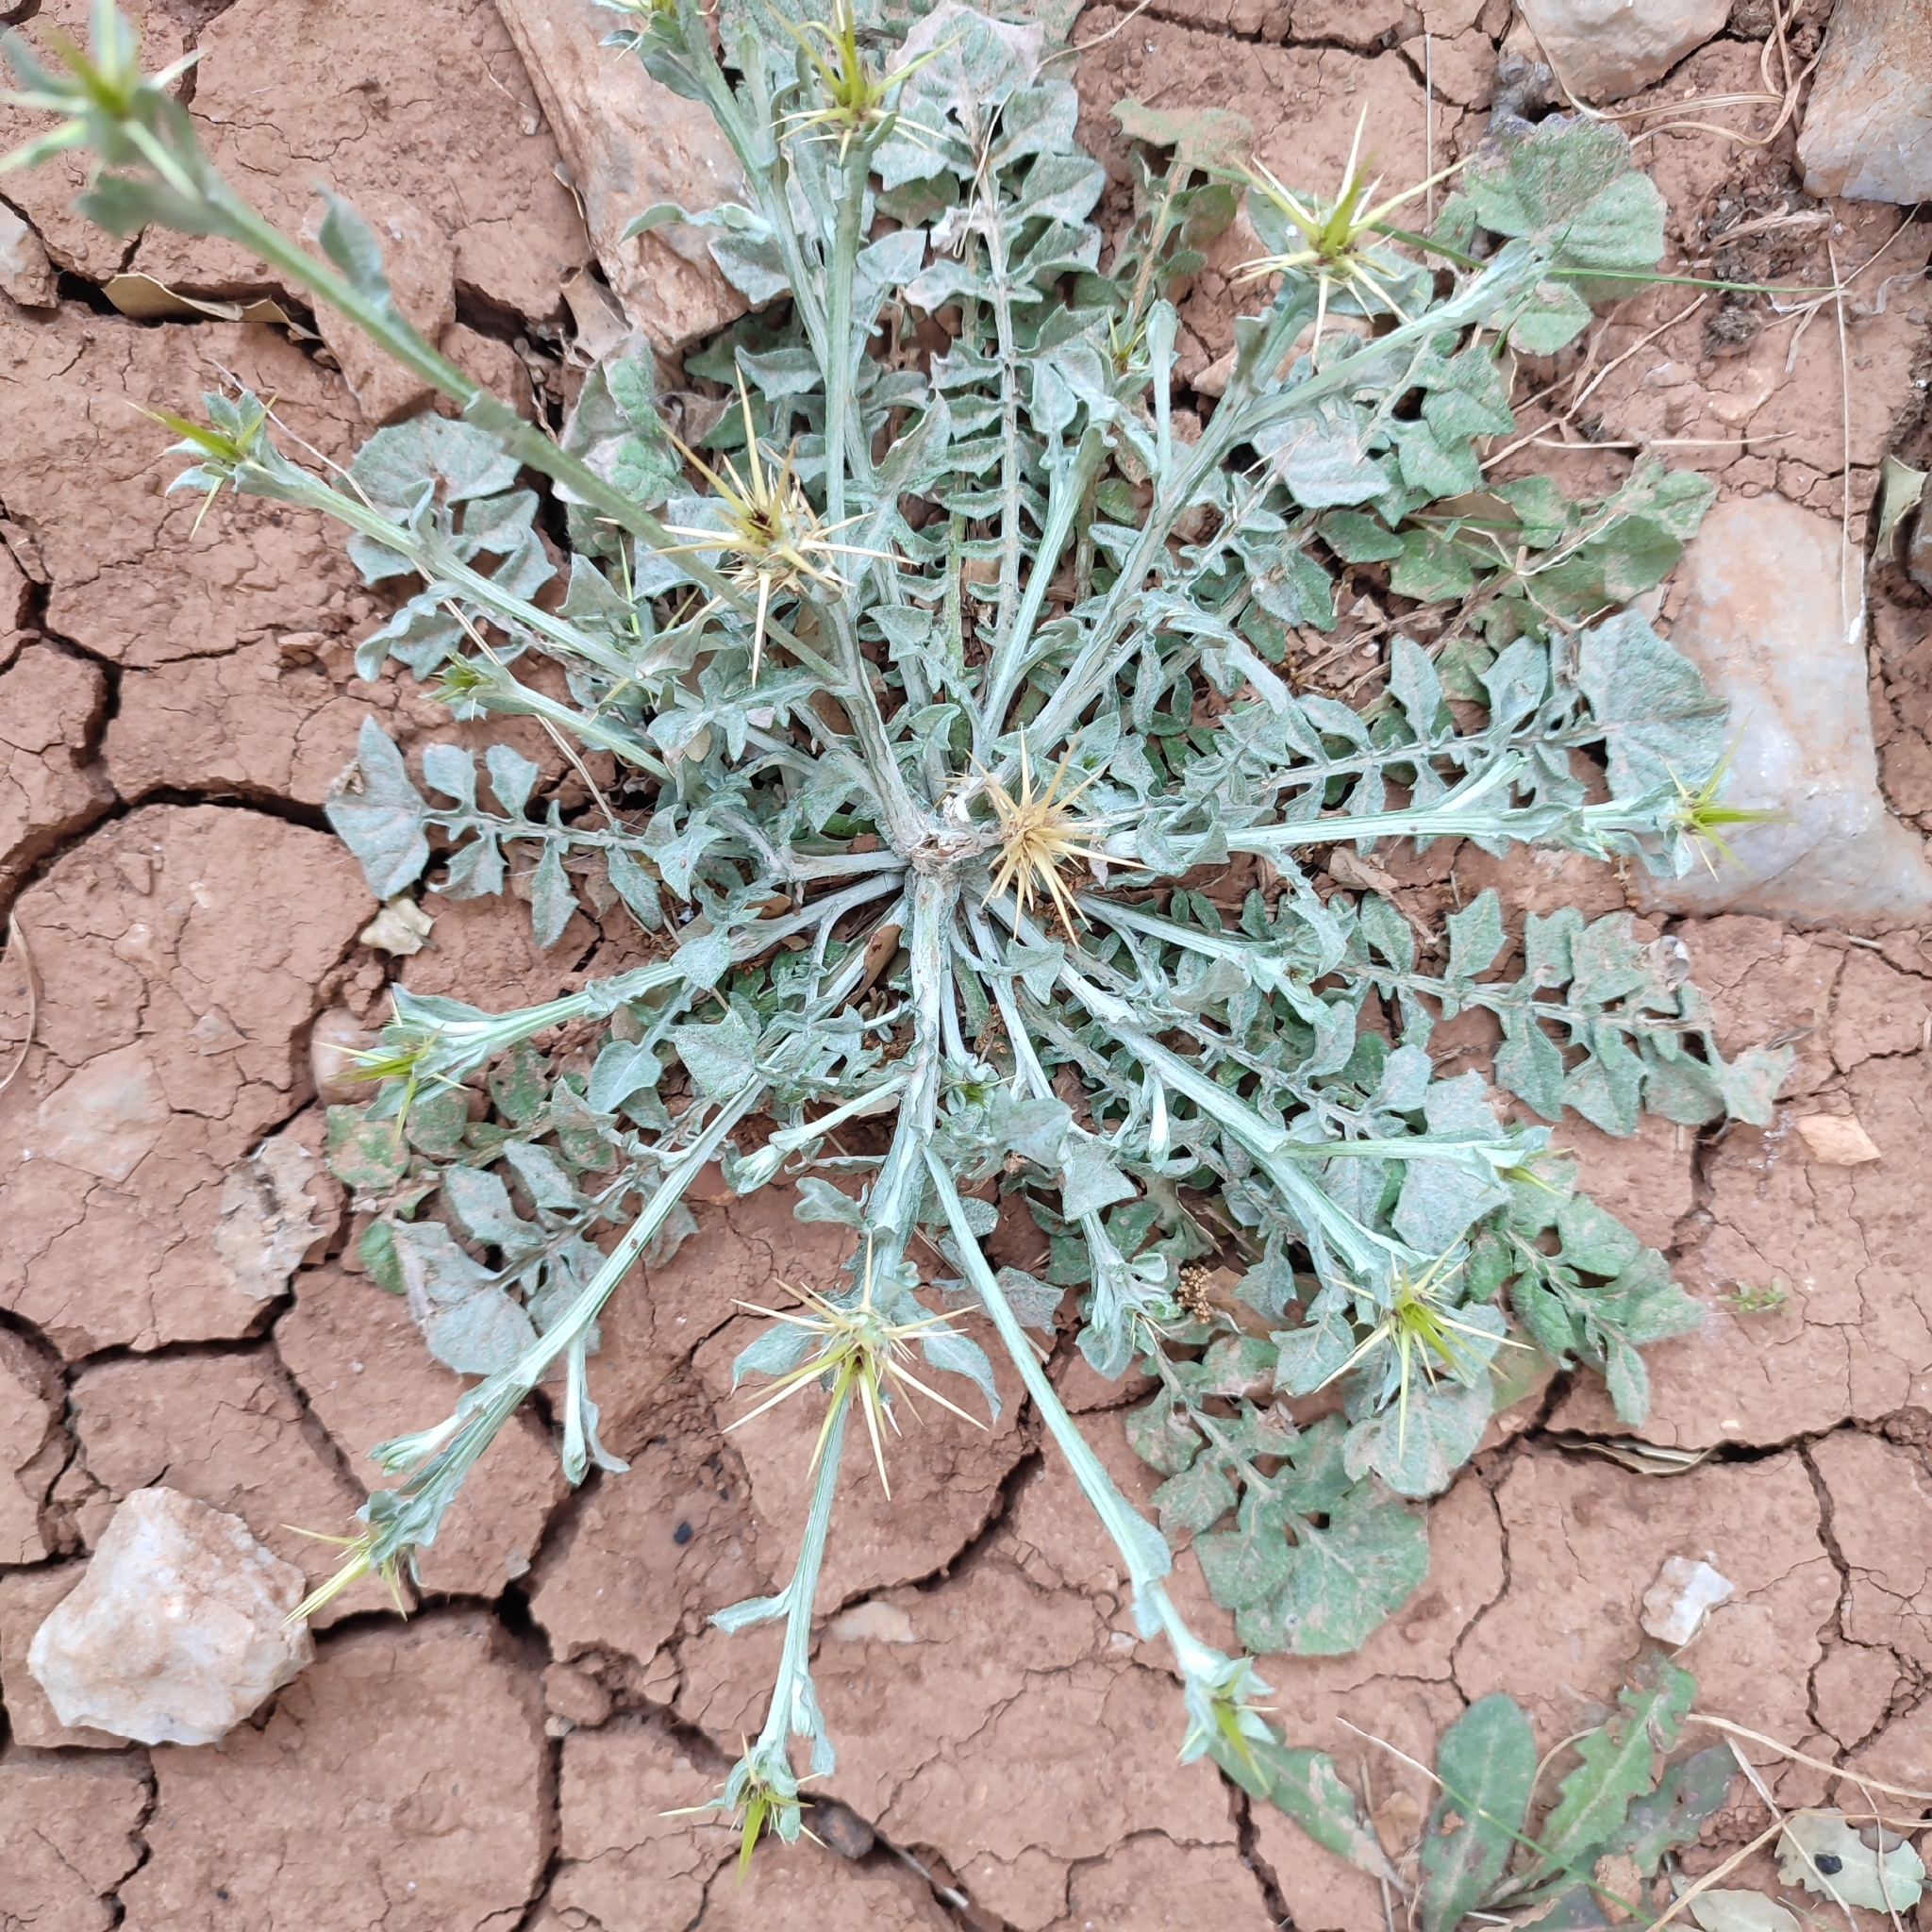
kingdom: Plantae
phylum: Tracheophyta
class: Magnoliopsida
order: Asterales
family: Asteraceae
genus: Centaurea
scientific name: Centaurea idaea
